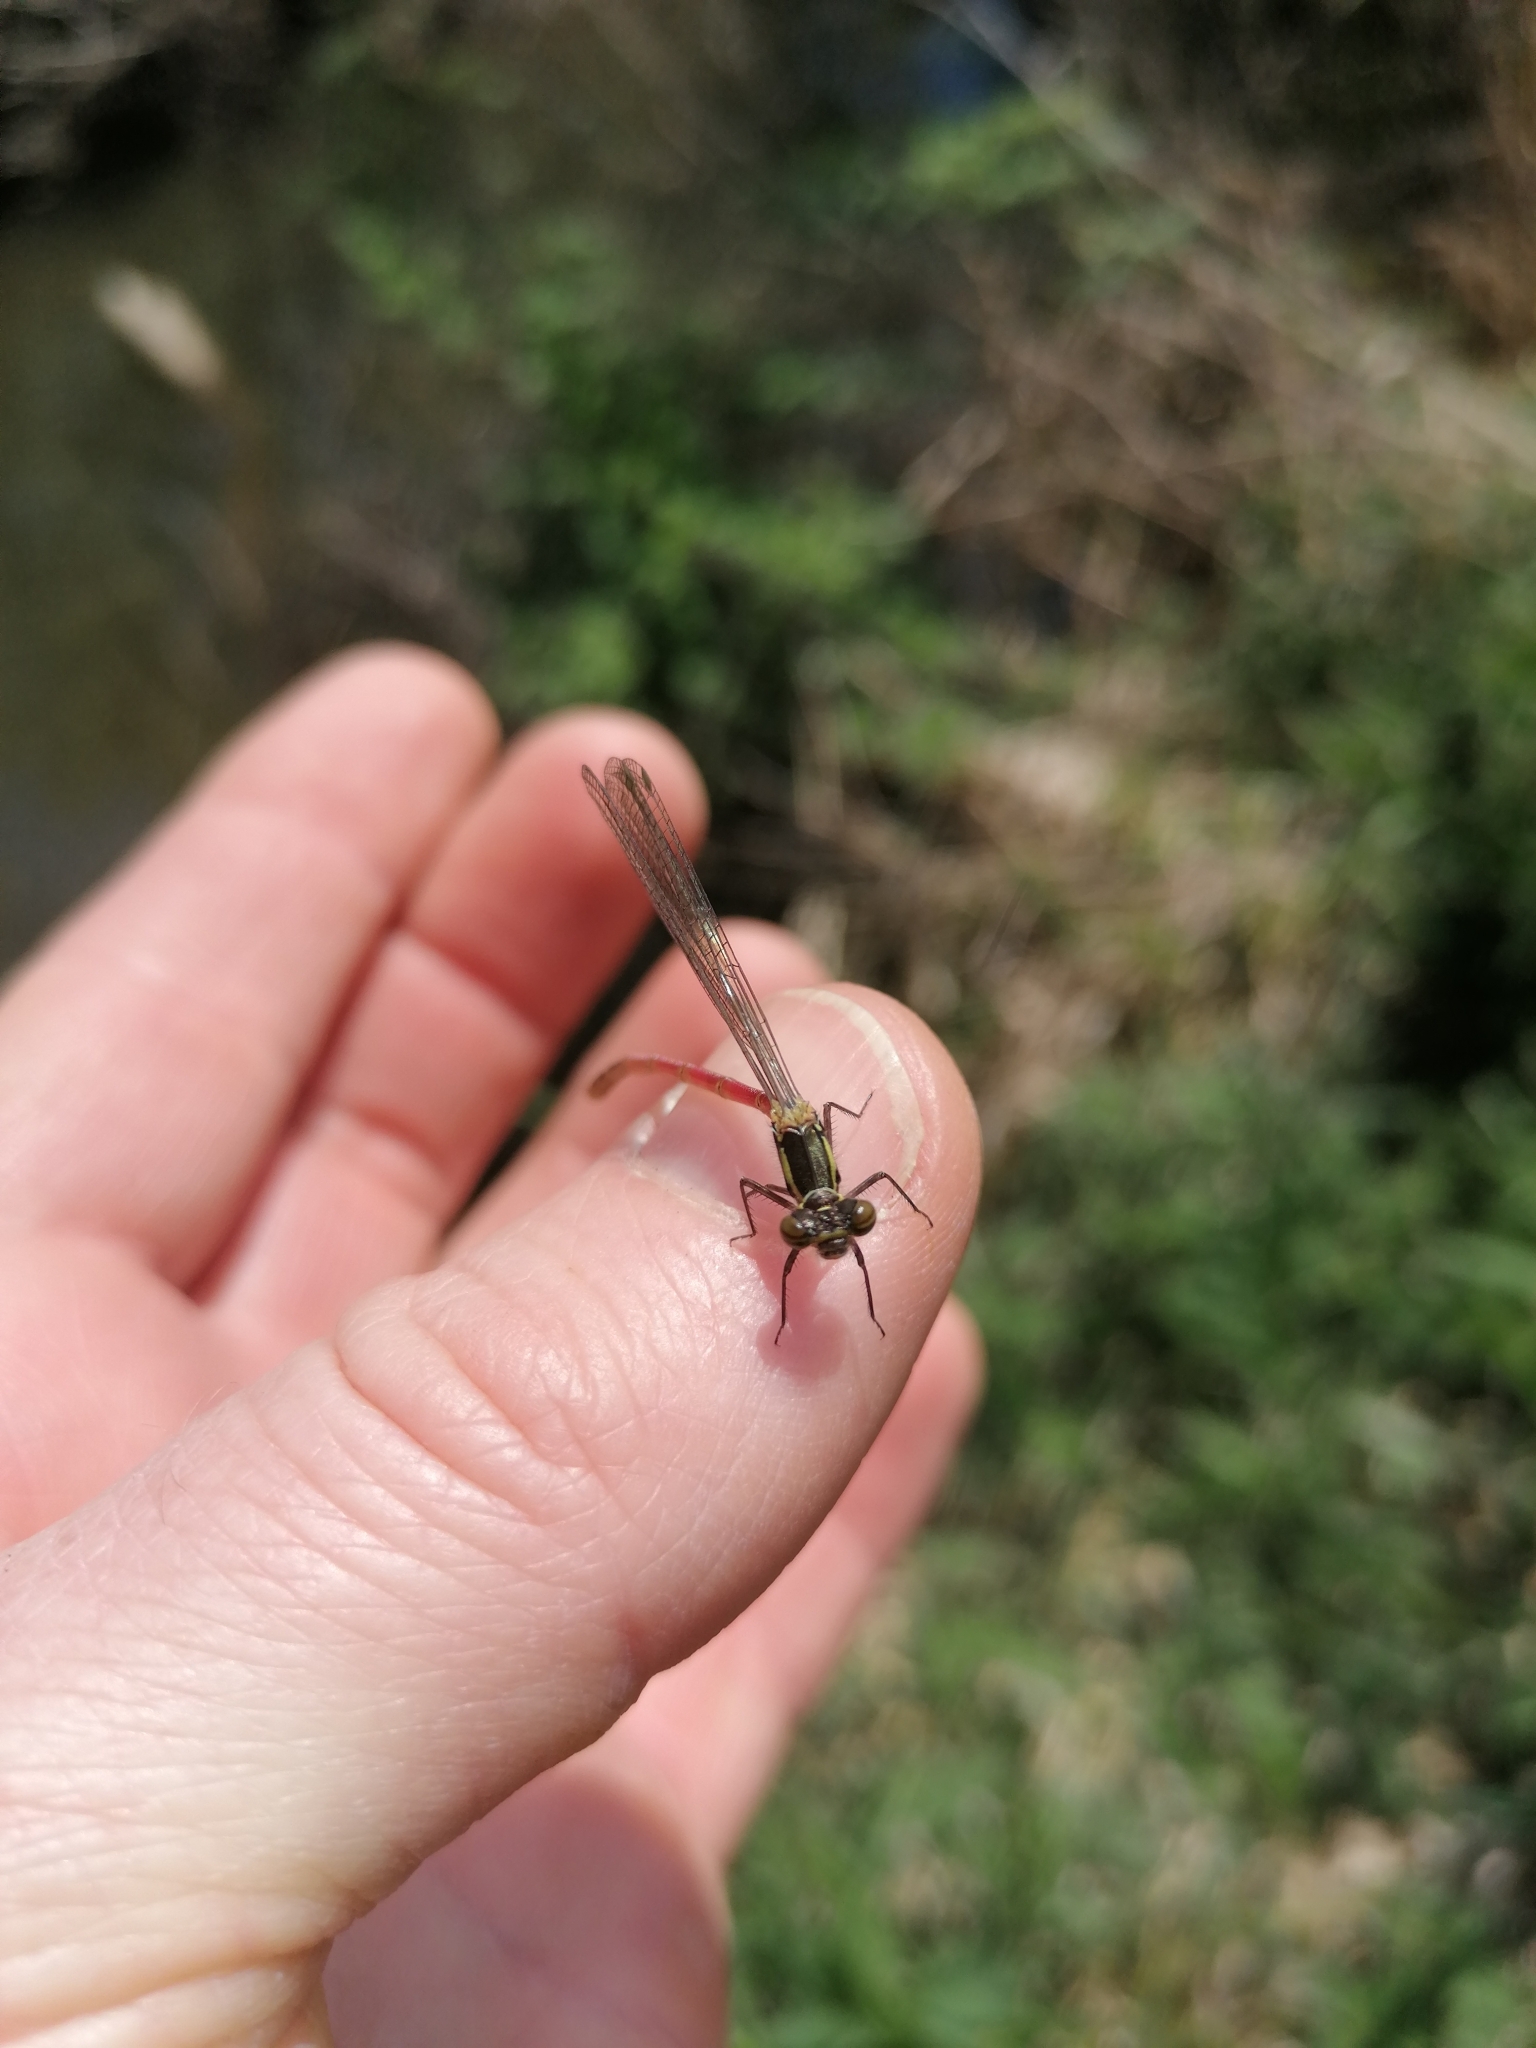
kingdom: Animalia
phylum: Arthropoda
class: Insecta
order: Odonata
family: Coenagrionidae
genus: Pyrrhosoma
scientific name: Pyrrhosoma nymphula
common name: Large red damsel
